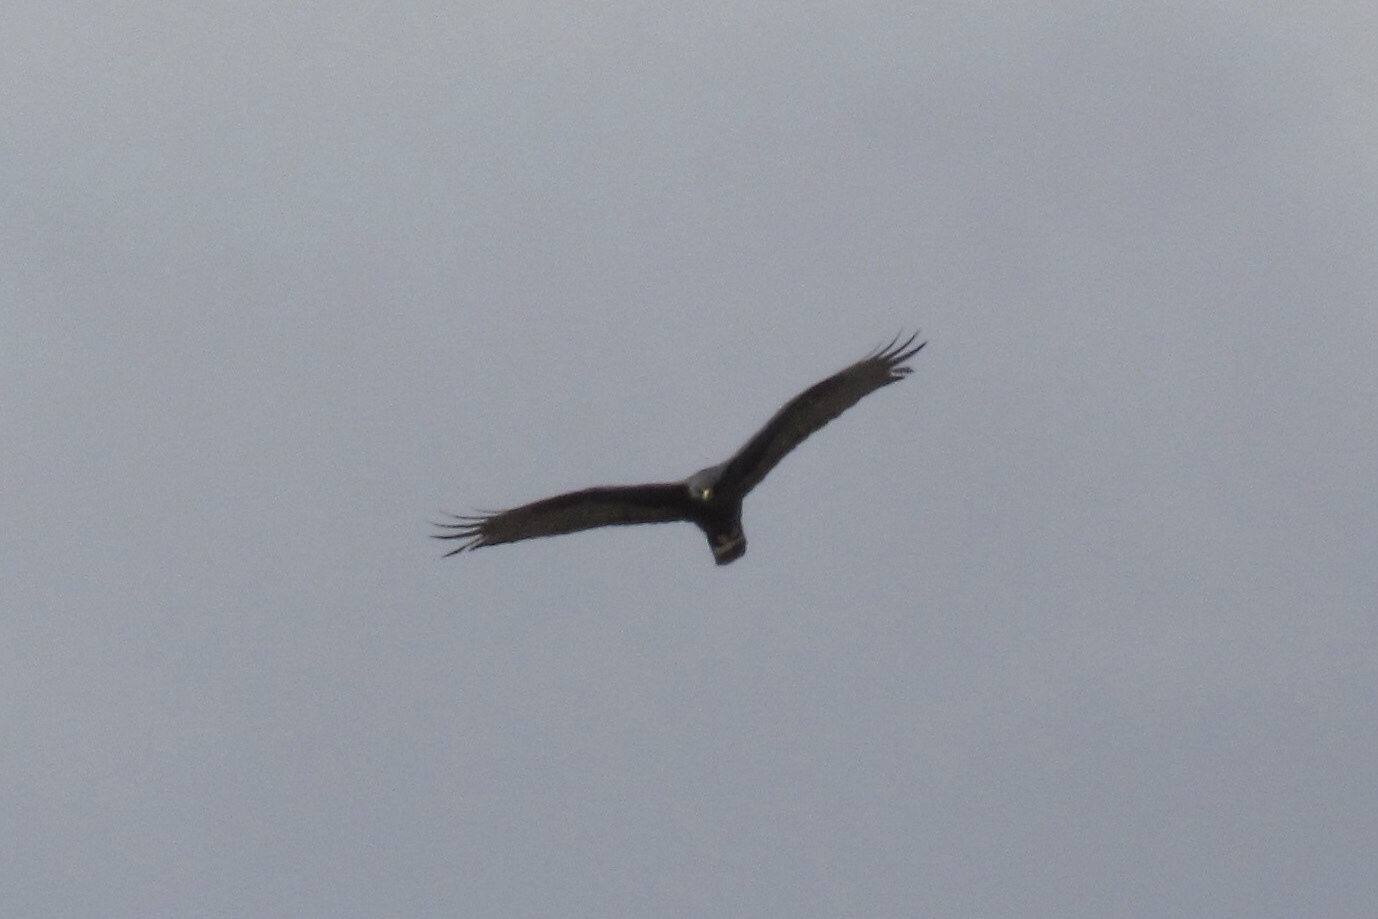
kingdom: Animalia
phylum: Chordata
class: Aves
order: Accipitriformes
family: Accipitridae
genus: Buteo
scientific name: Buteo albonotatus
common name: Zone-tailed hawk
